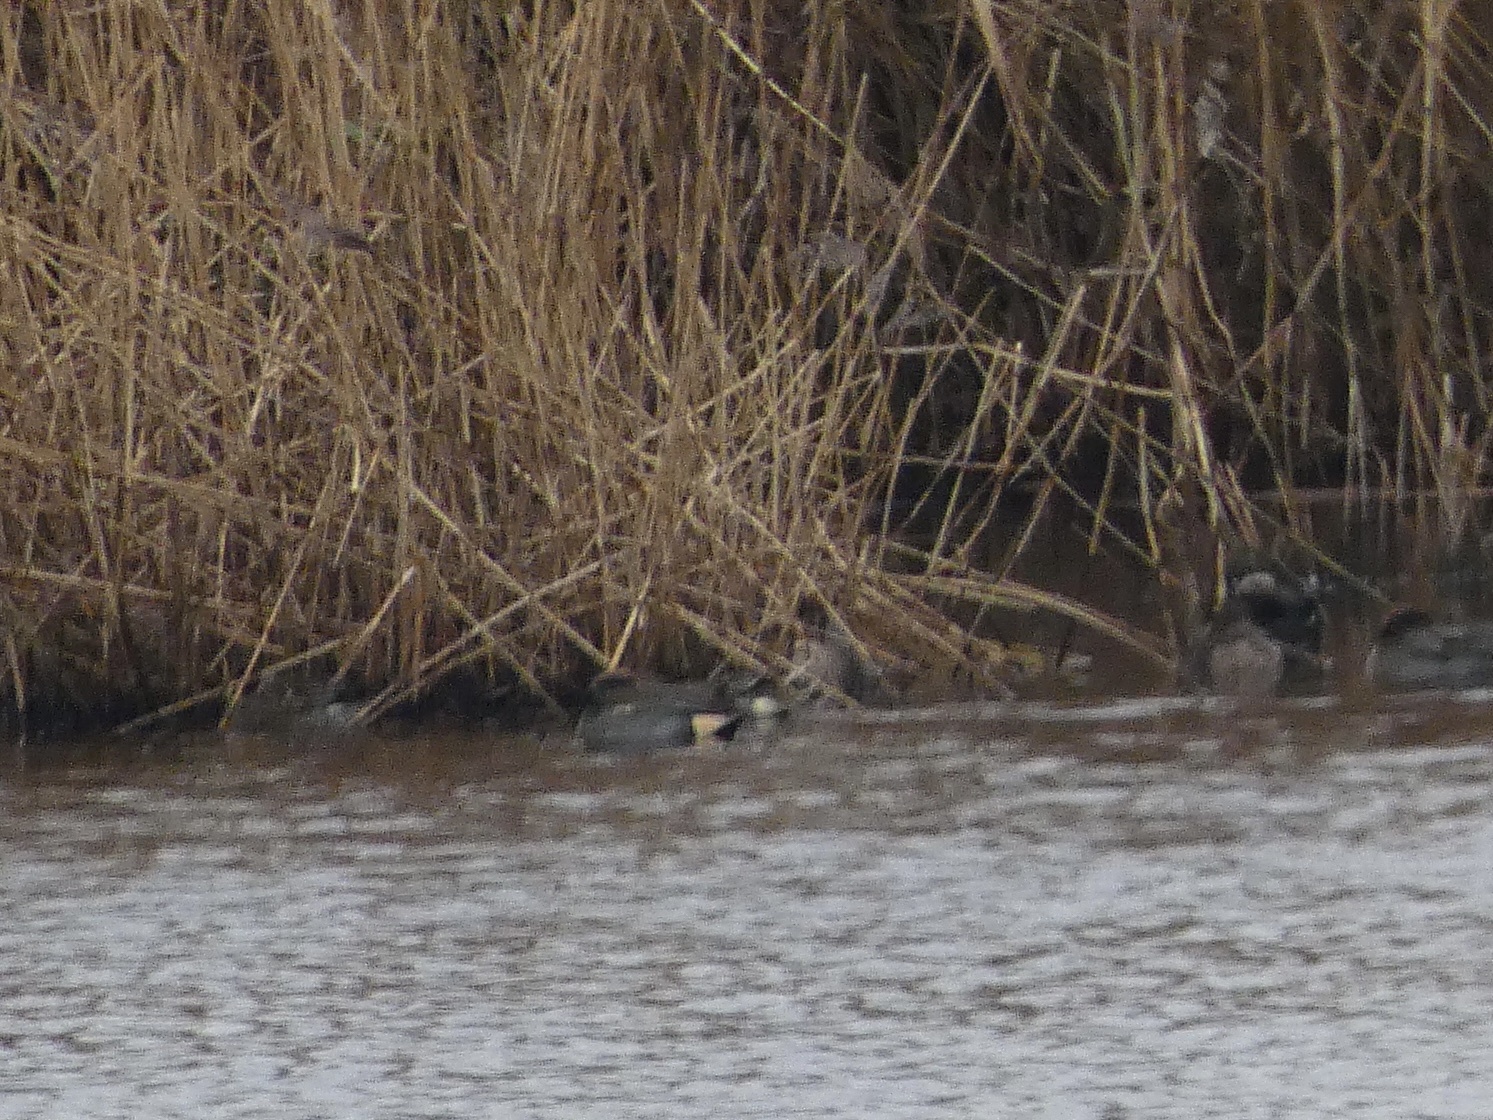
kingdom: Animalia
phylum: Chordata
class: Aves
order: Anseriformes
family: Anatidae
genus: Anas
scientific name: Anas crecca
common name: Eurasian teal
